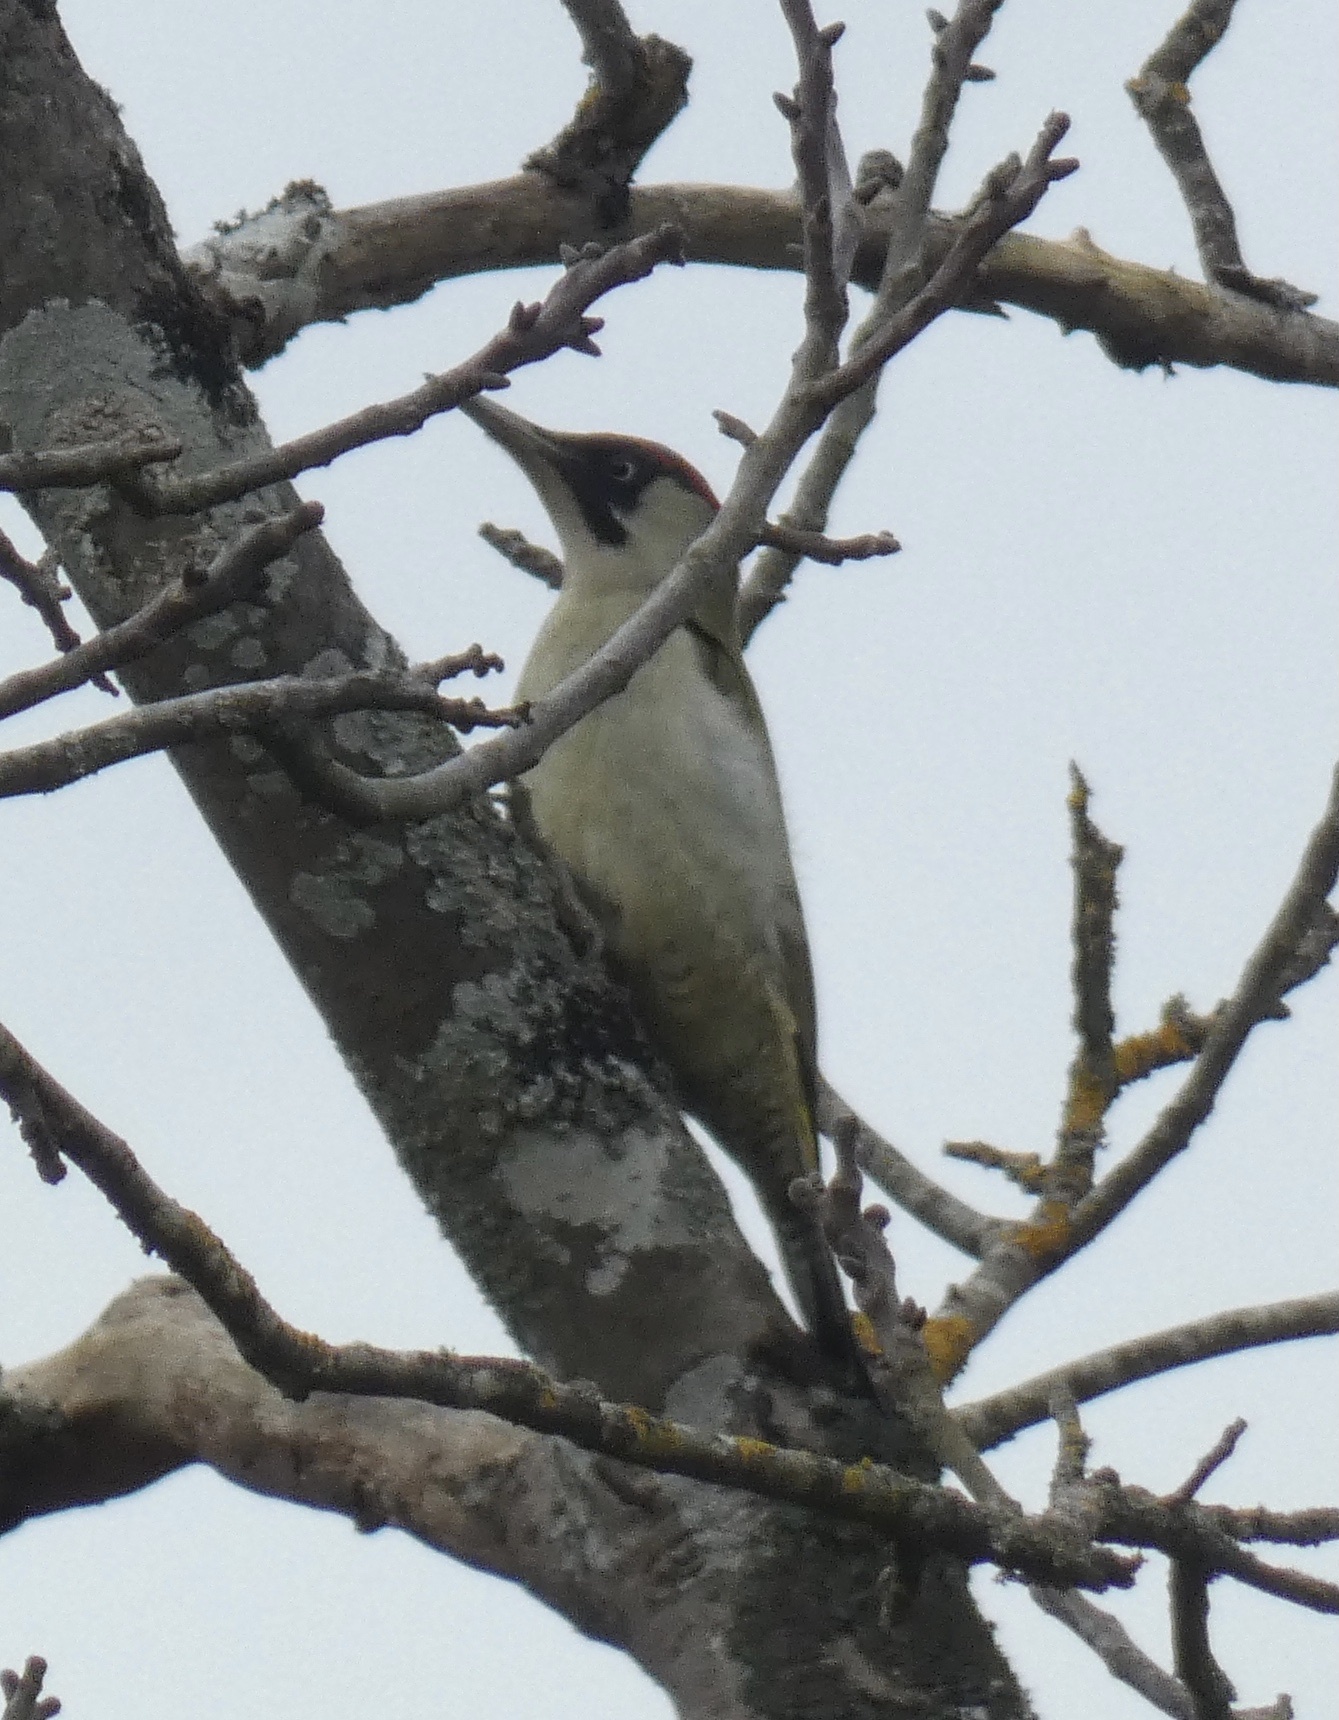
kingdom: Animalia
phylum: Chordata
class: Aves
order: Piciformes
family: Picidae
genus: Picus
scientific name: Picus viridis
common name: European green woodpecker
